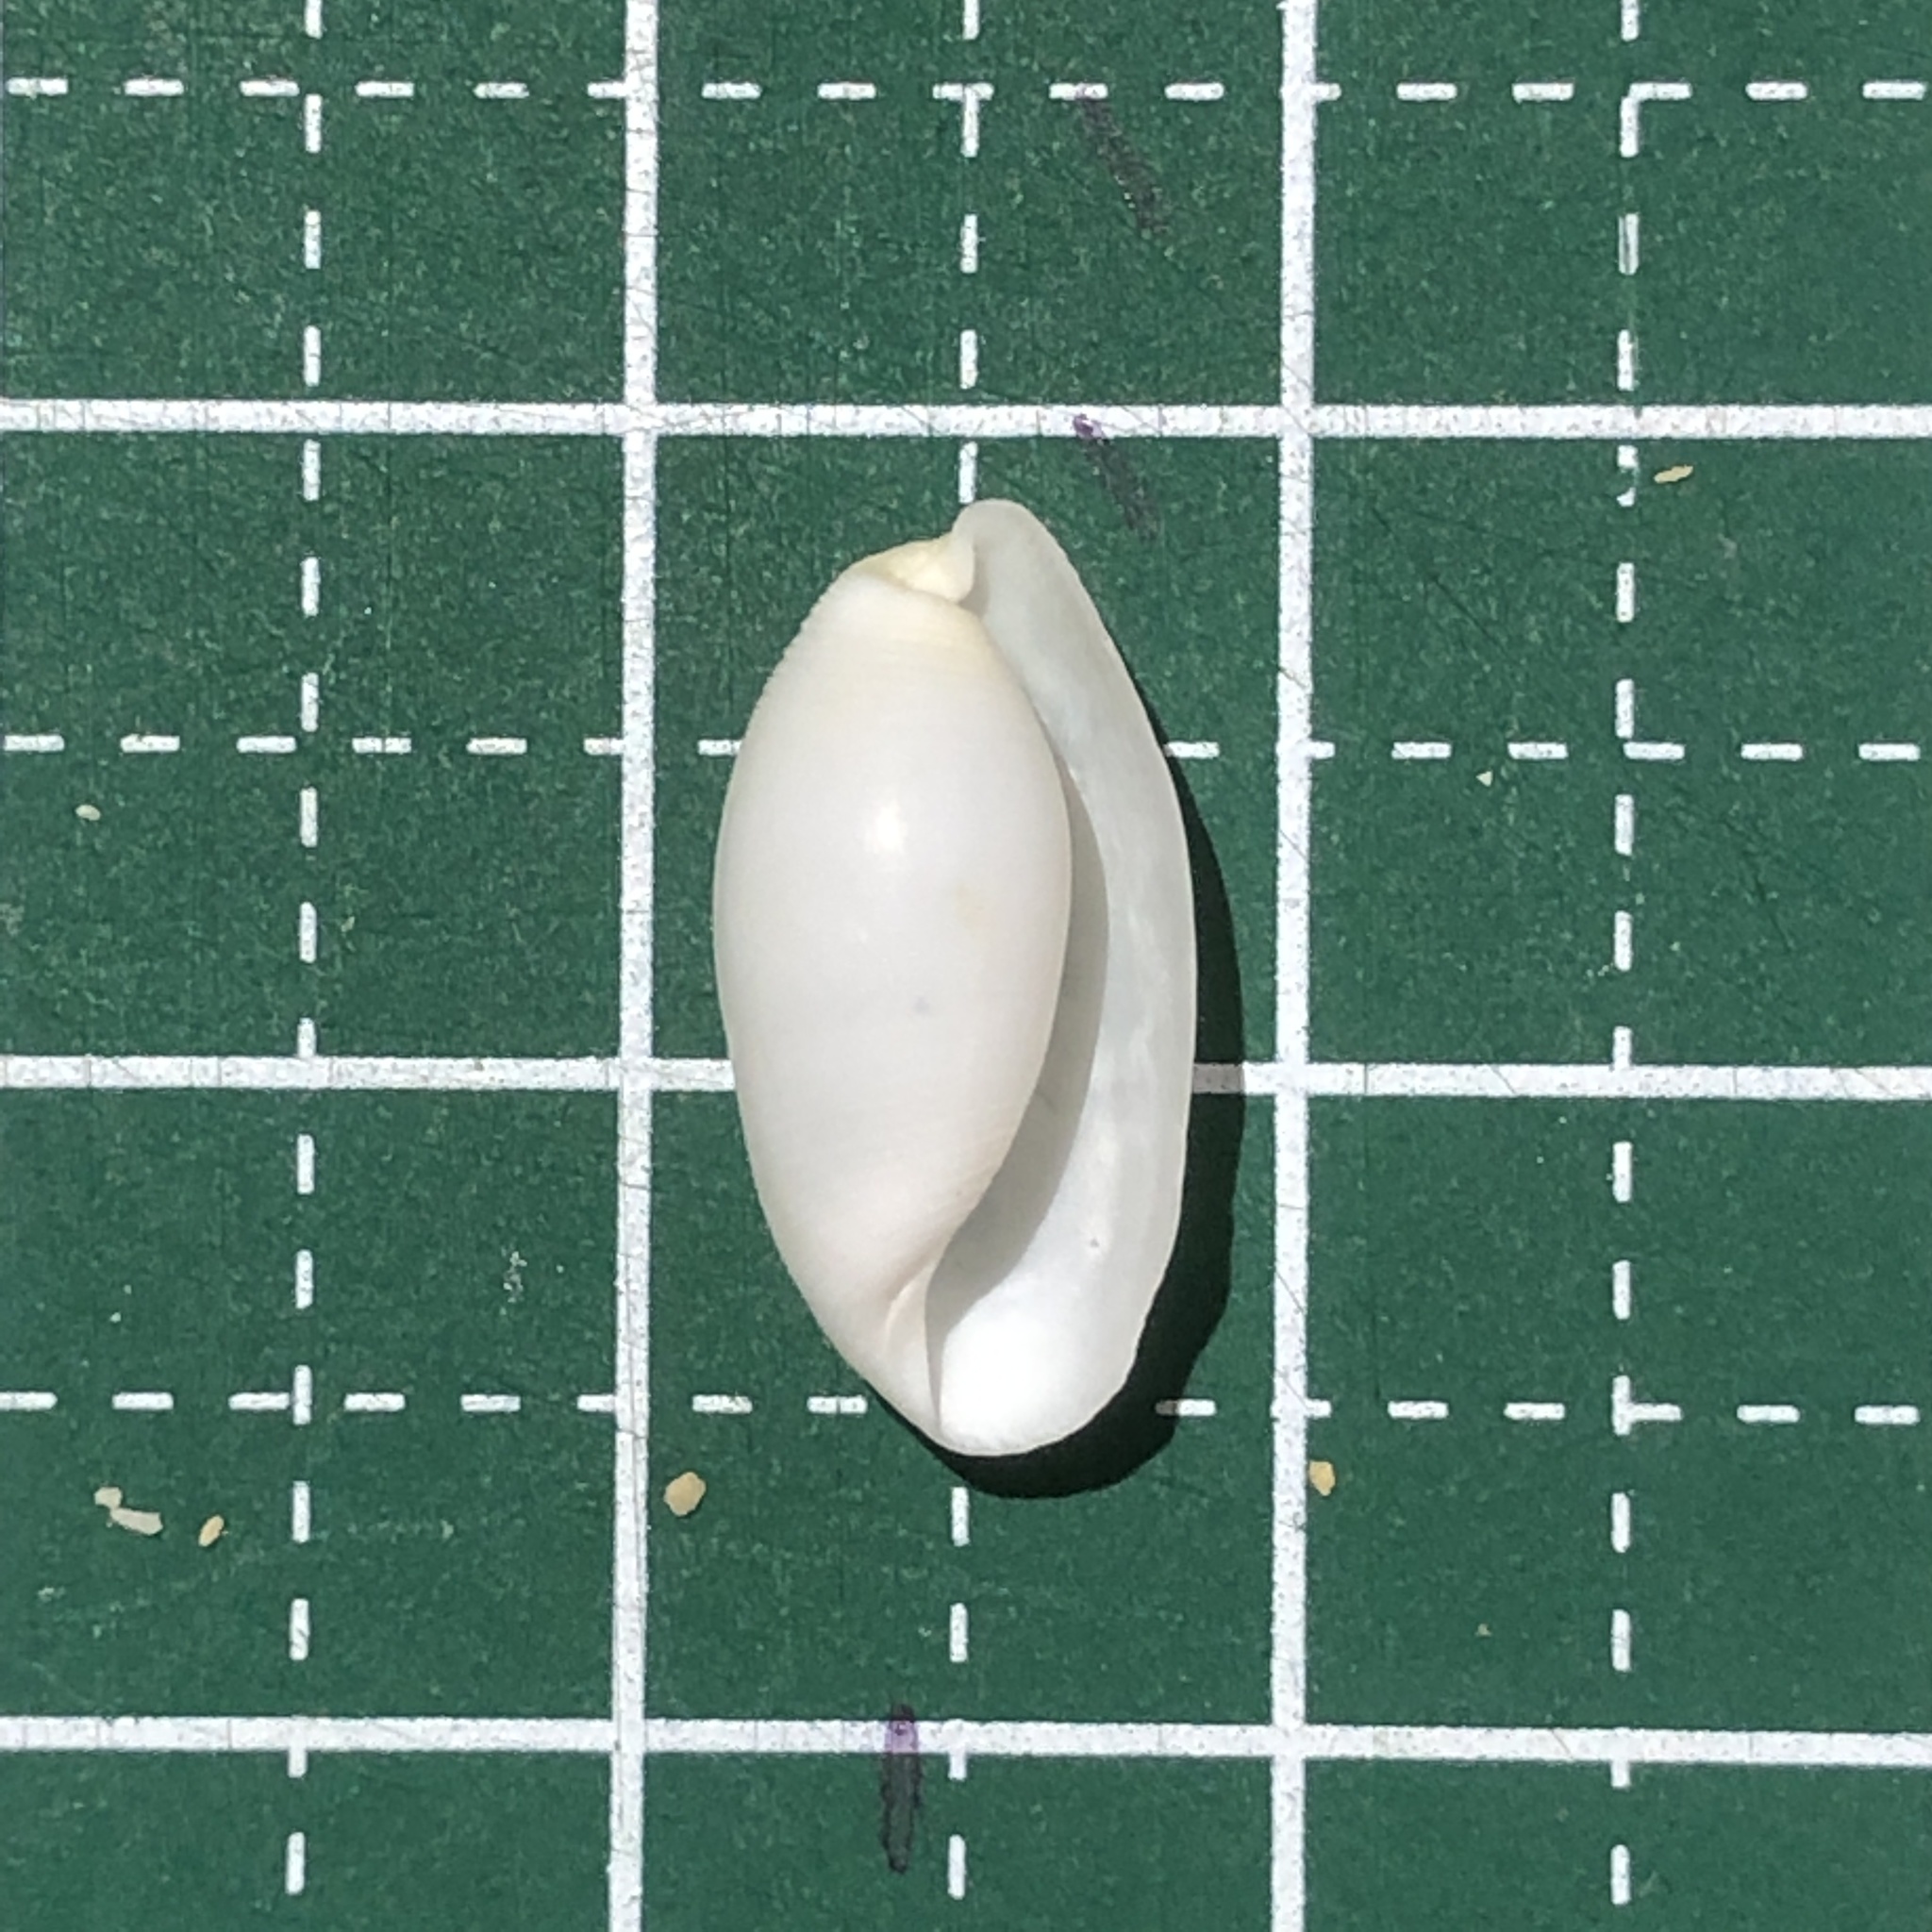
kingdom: Animalia
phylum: Mollusca
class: Gastropoda
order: Cephalaspidea
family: Haminoeidae
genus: Aliculastrum
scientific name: Aliculastrum cylindricum
